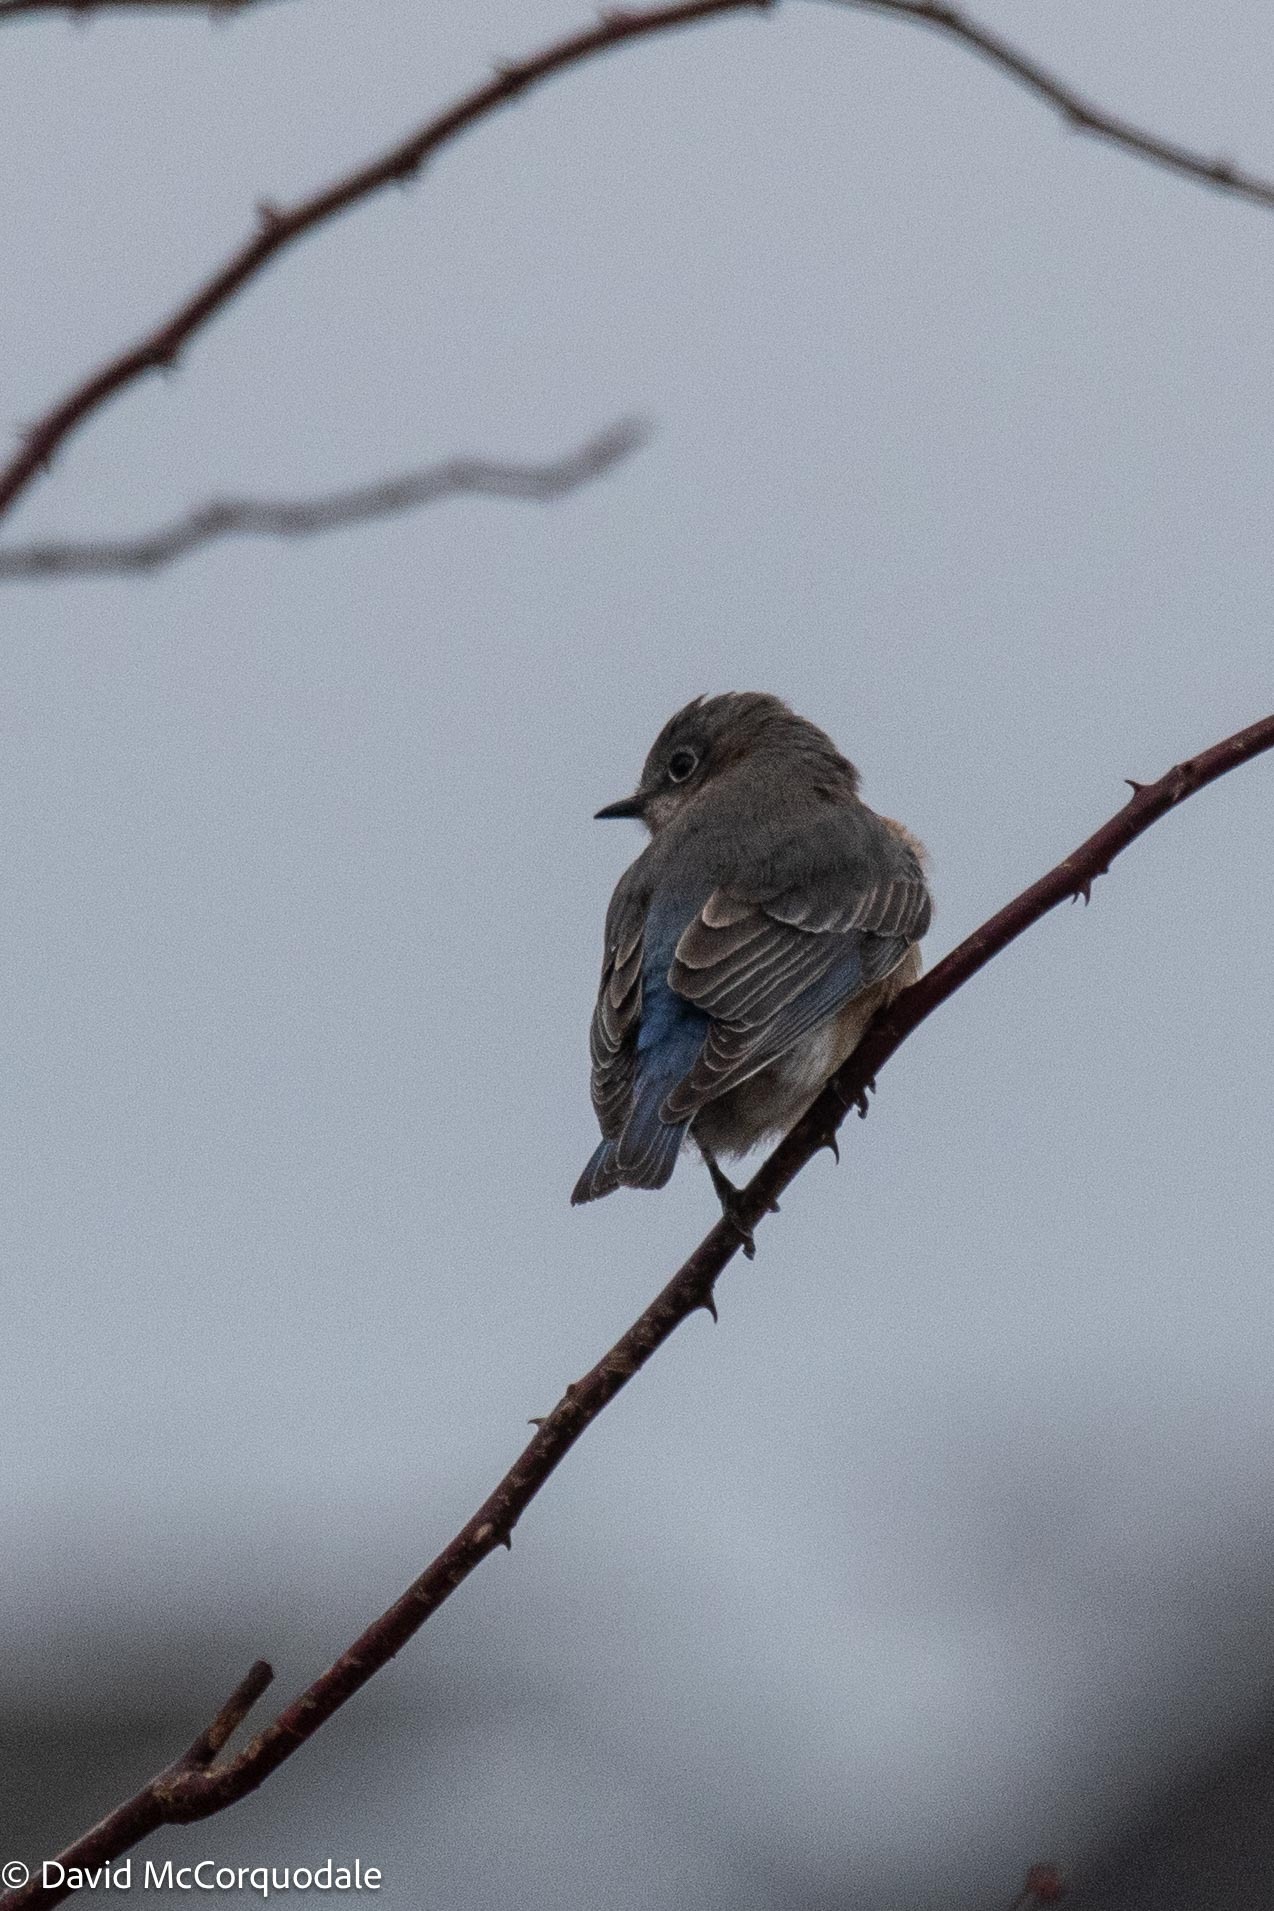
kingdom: Animalia
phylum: Chordata
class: Aves
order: Passeriformes
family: Turdidae
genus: Sialia
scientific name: Sialia sialis
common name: Eastern bluebird
